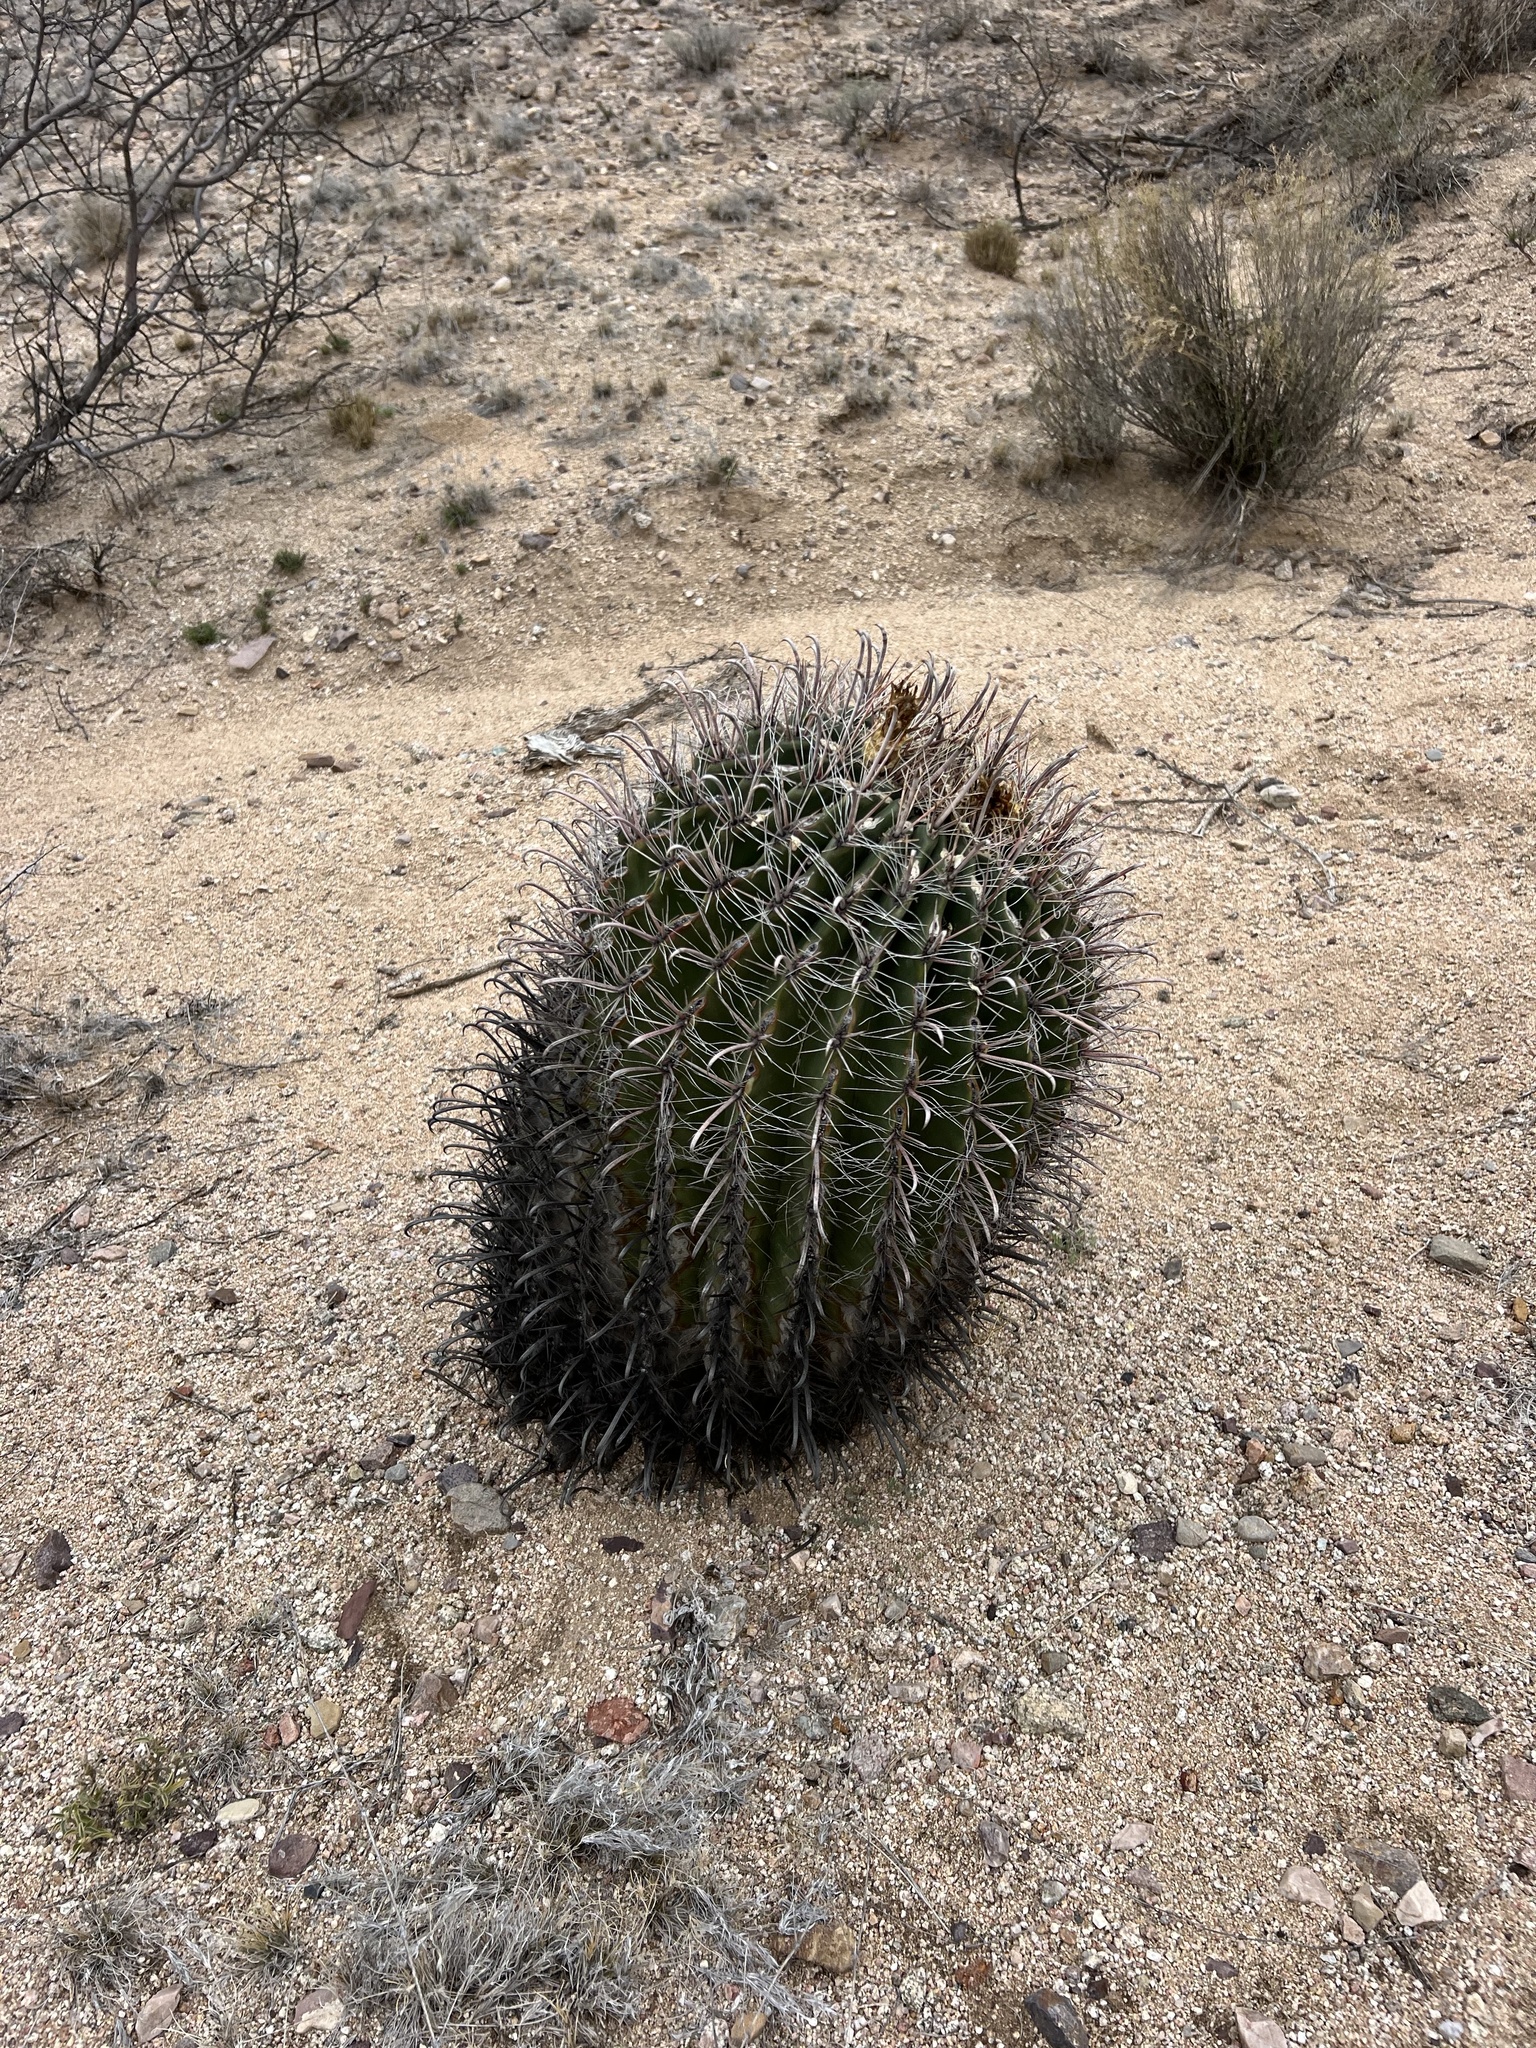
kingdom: Plantae
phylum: Tracheophyta
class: Magnoliopsida
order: Caryophyllales
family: Cactaceae
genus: Ferocactus
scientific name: Ferocactus wislizeni
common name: Candy barrel cactus
